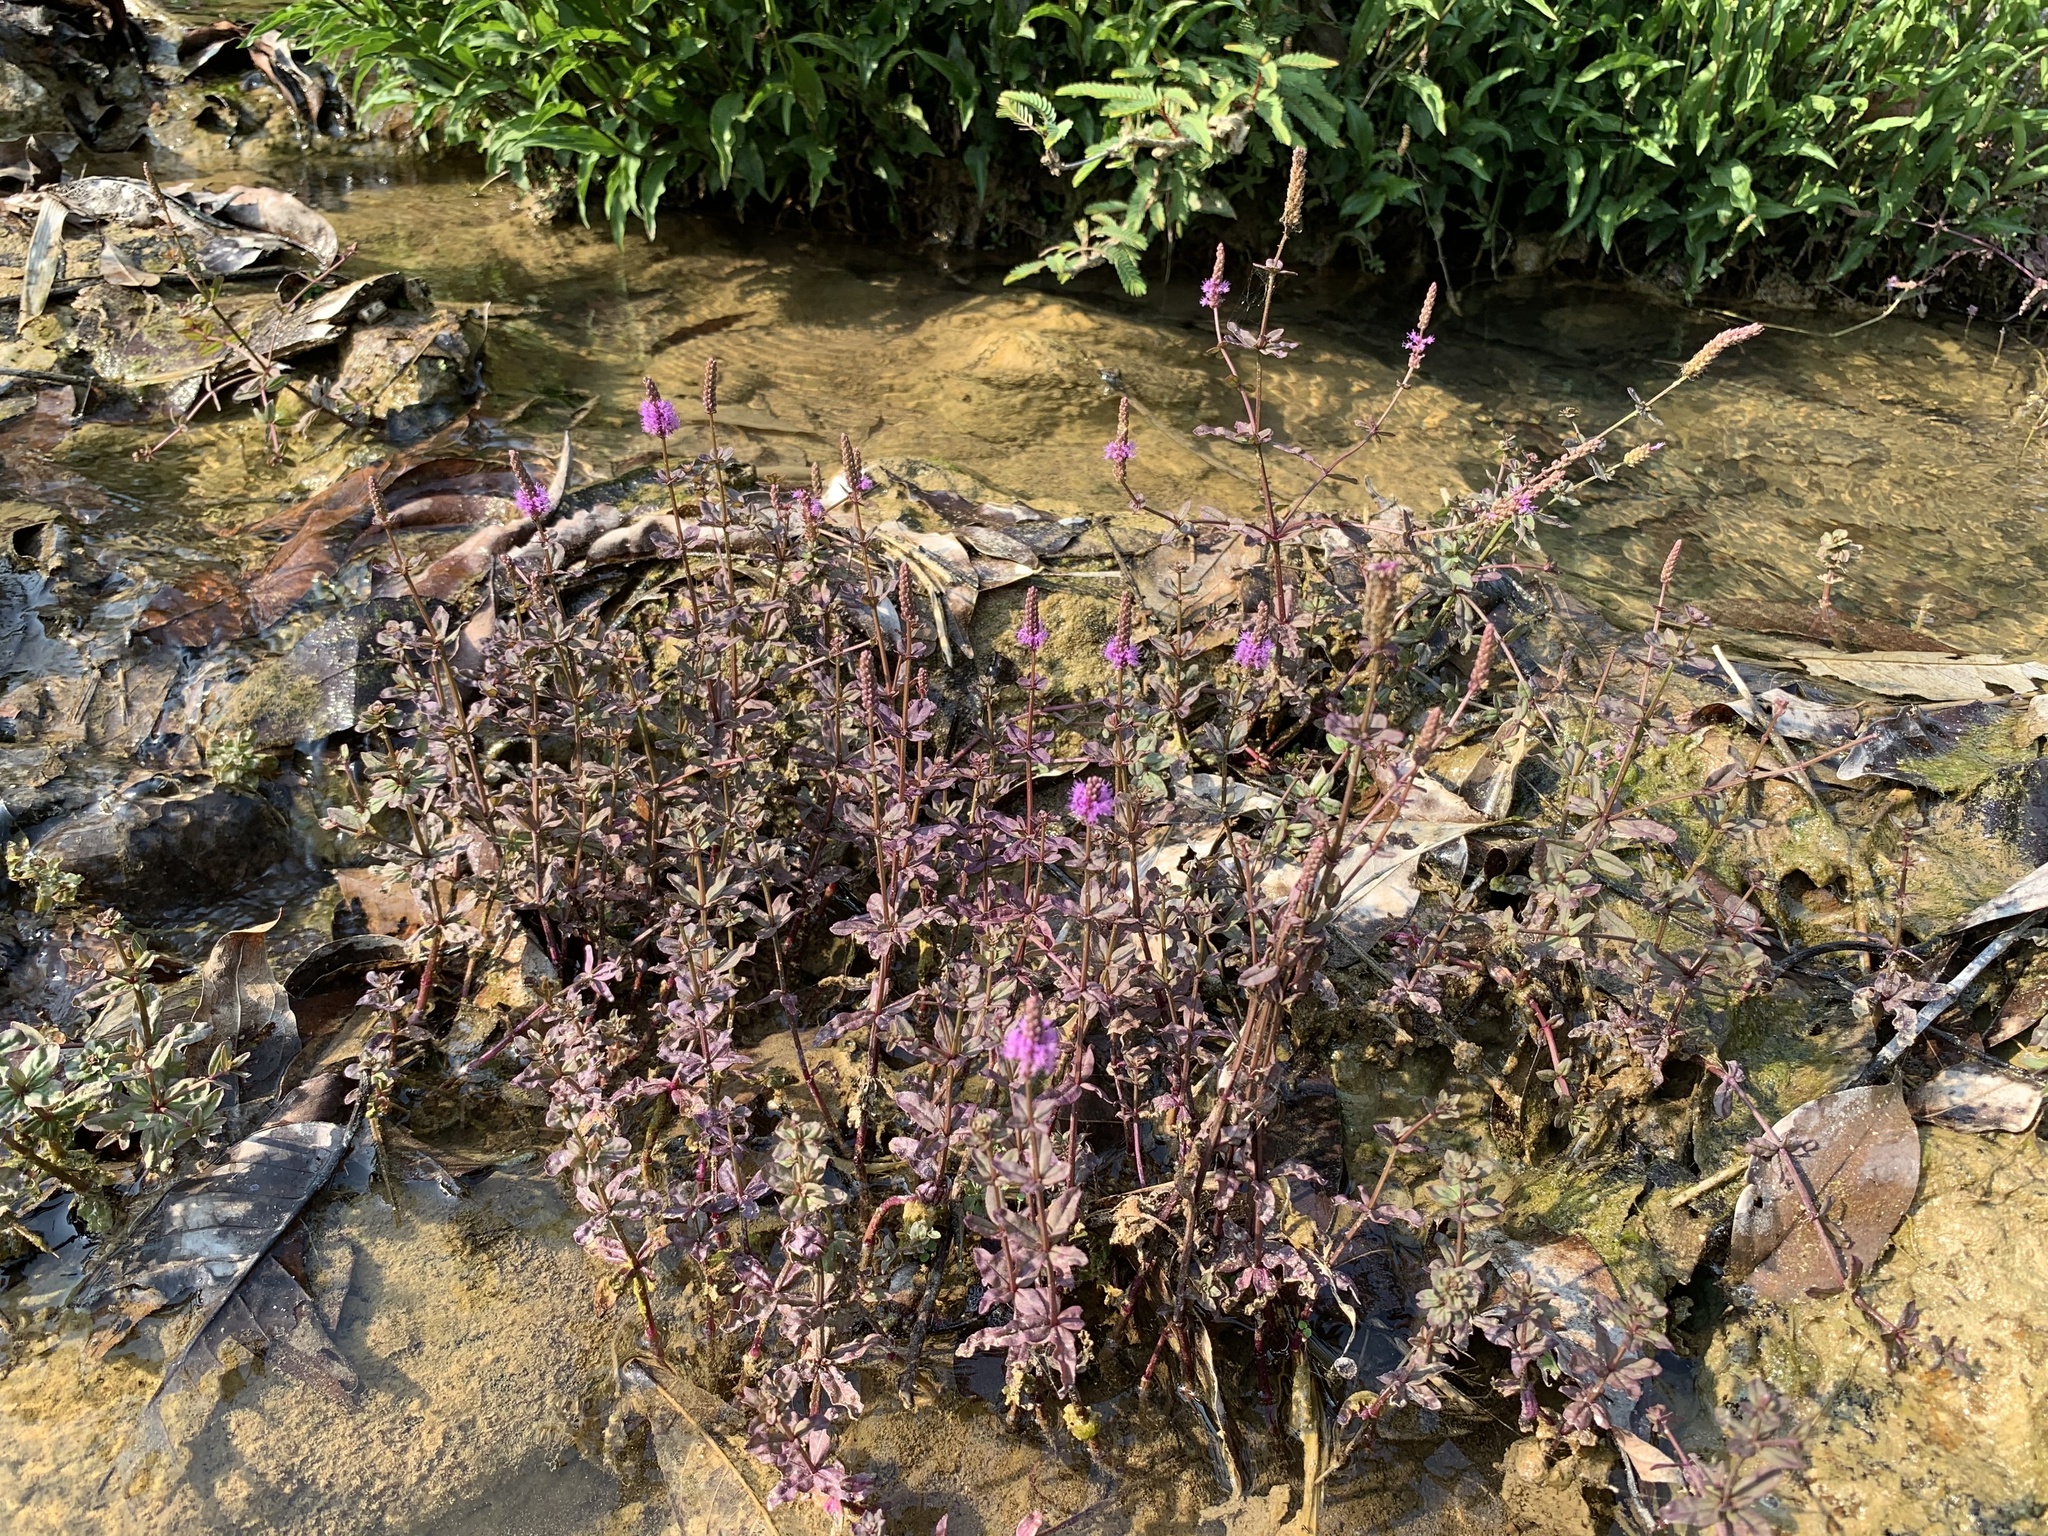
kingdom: Plantae
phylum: Tracheophyta
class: Magnoliopsida
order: Lamiales
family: Lamiaceae
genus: Pogostemon
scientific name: Pogostemon helferi
